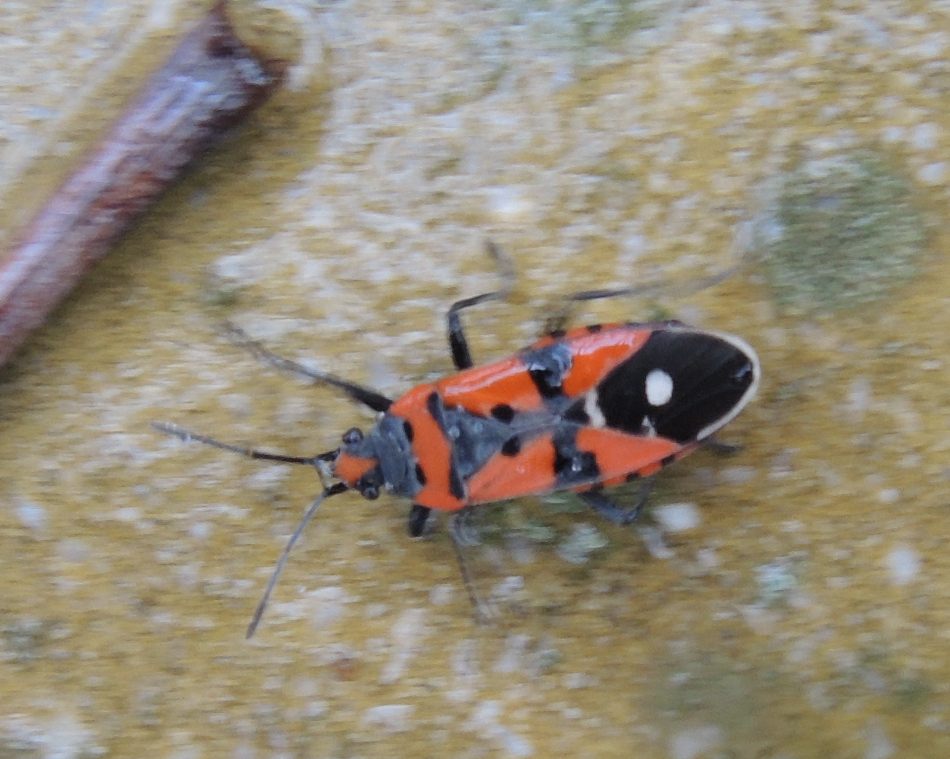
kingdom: Animalia
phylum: Arthropoda
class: Insecta
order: Hemiptera
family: Lygaeidae
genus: Lygaeus
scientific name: Lygaeus equestris
